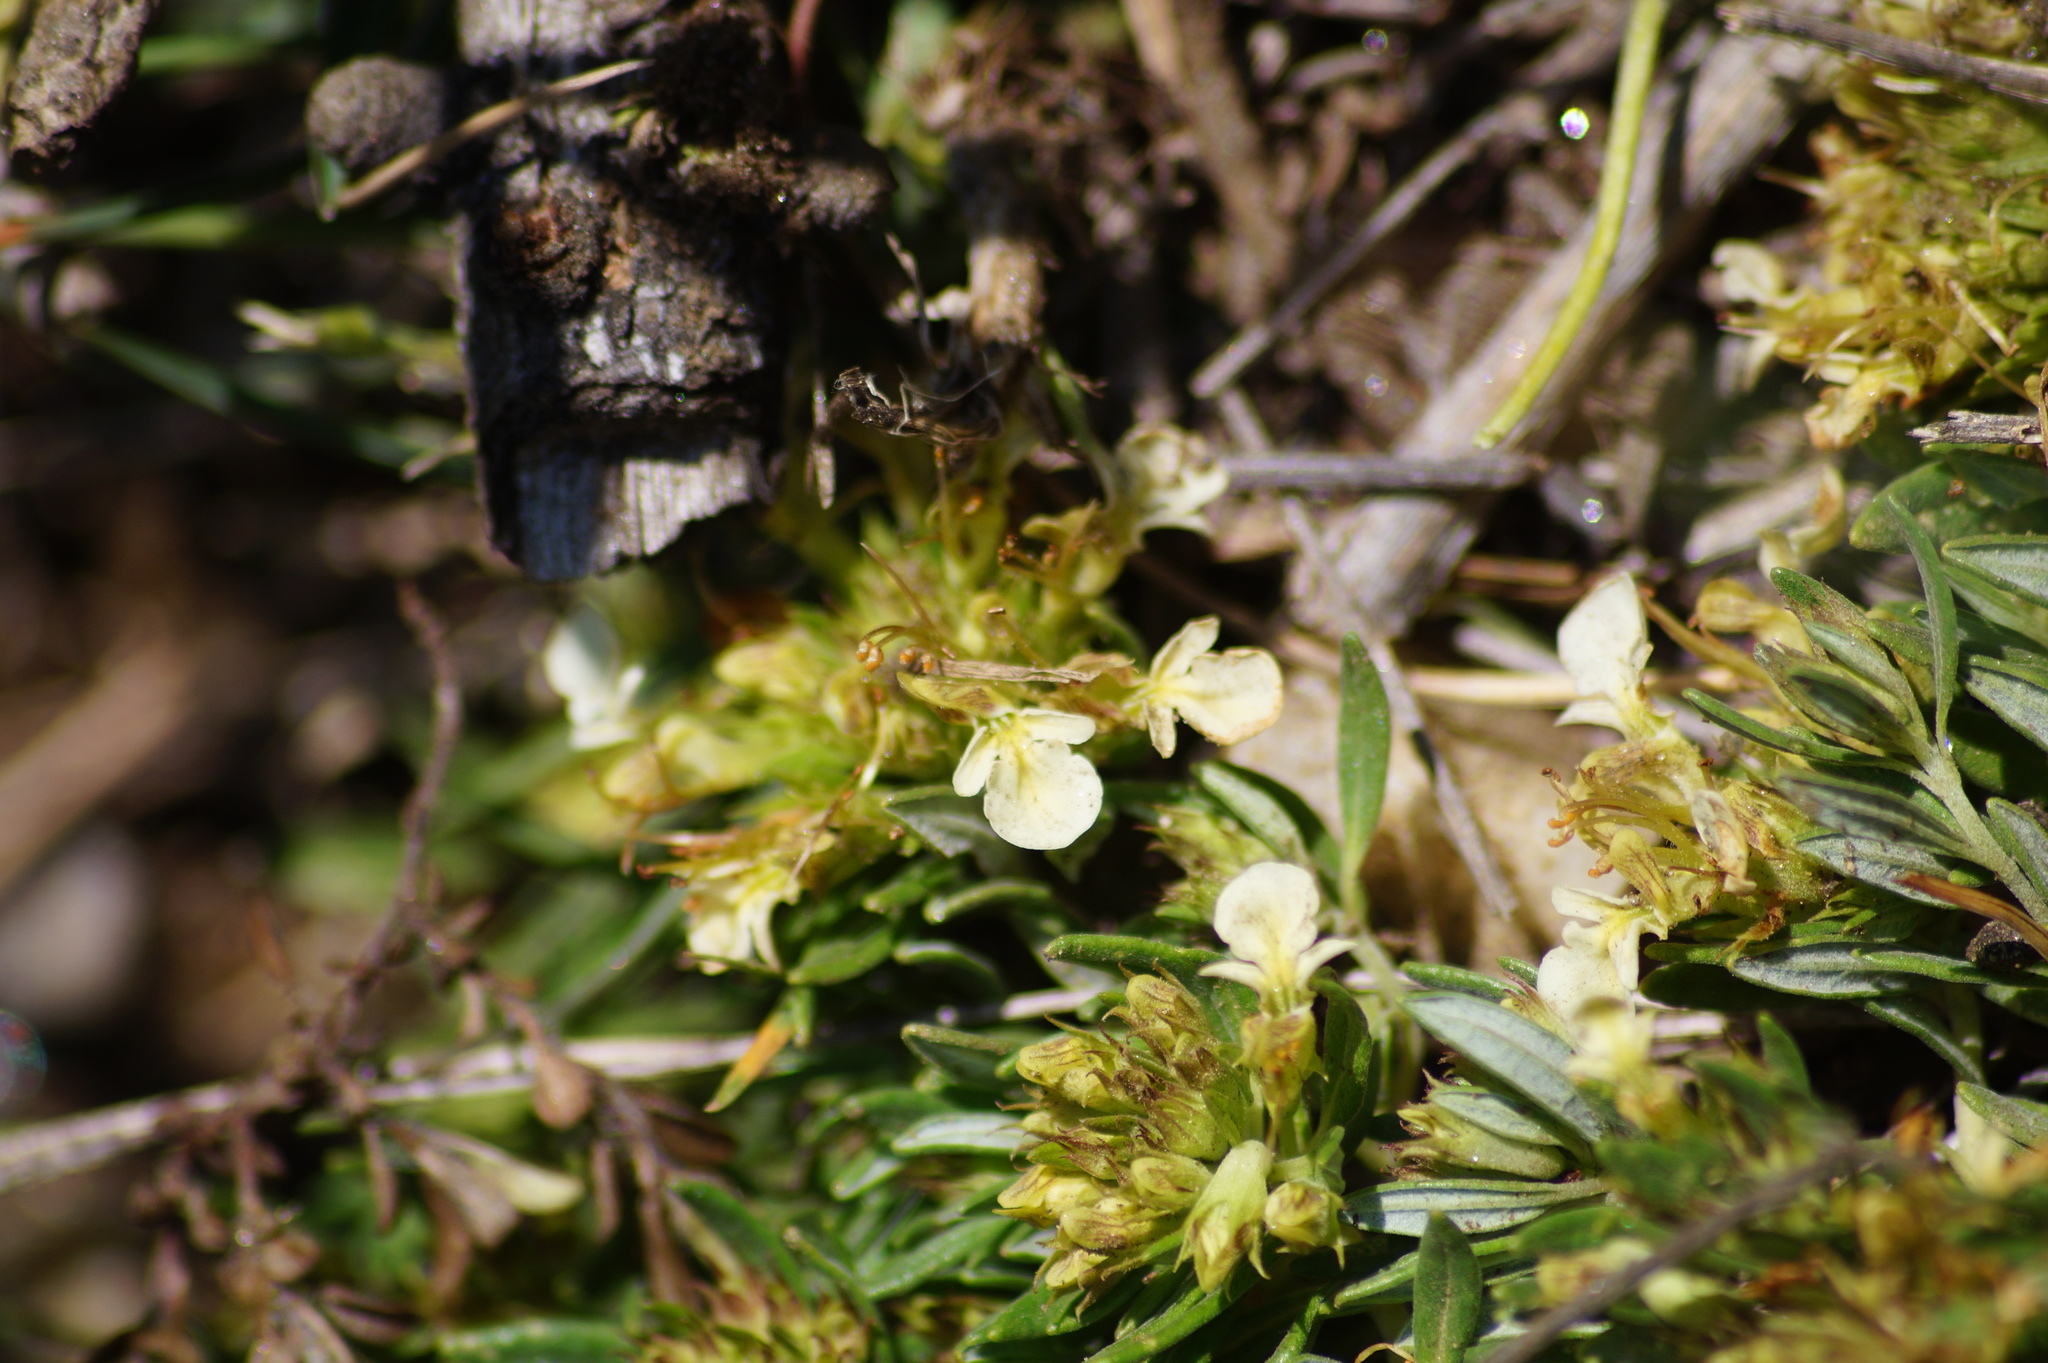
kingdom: Plantae
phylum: Tracheophyta
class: Magnoliopsida
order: Lamiales
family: Lamiaceae
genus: Teucrium
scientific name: Teucrium montanum
